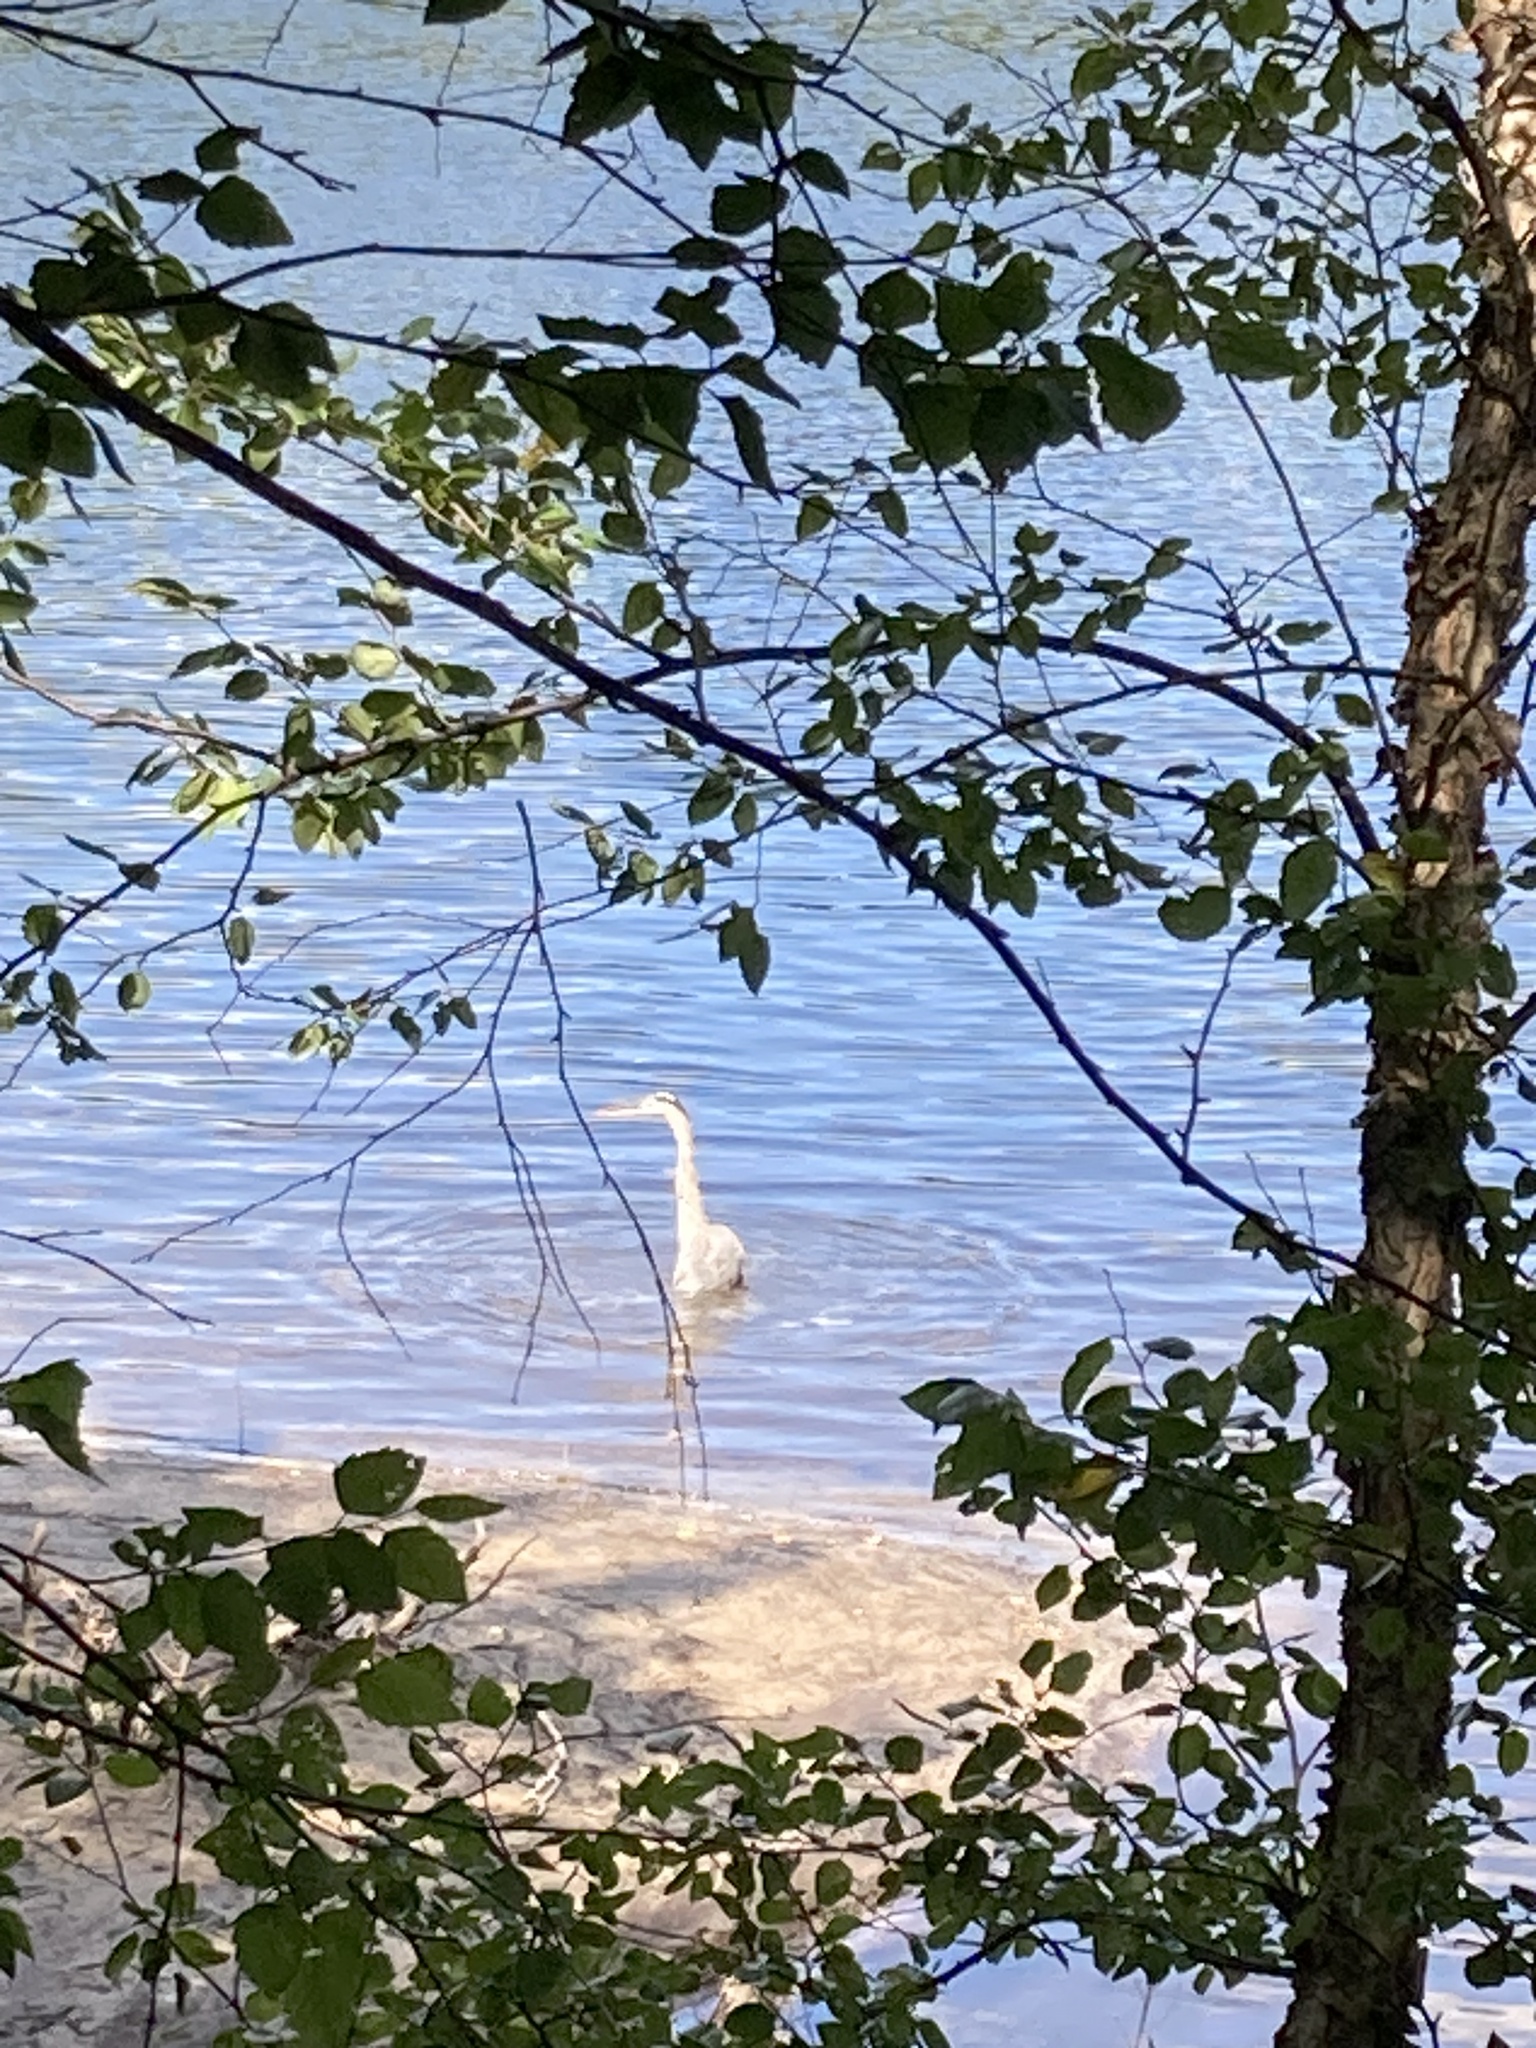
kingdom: Animalia
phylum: Chordata
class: Aves
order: Pelecaniformes
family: Ardeidae
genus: Ardea
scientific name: Ardea herodias
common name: Great blue heron
